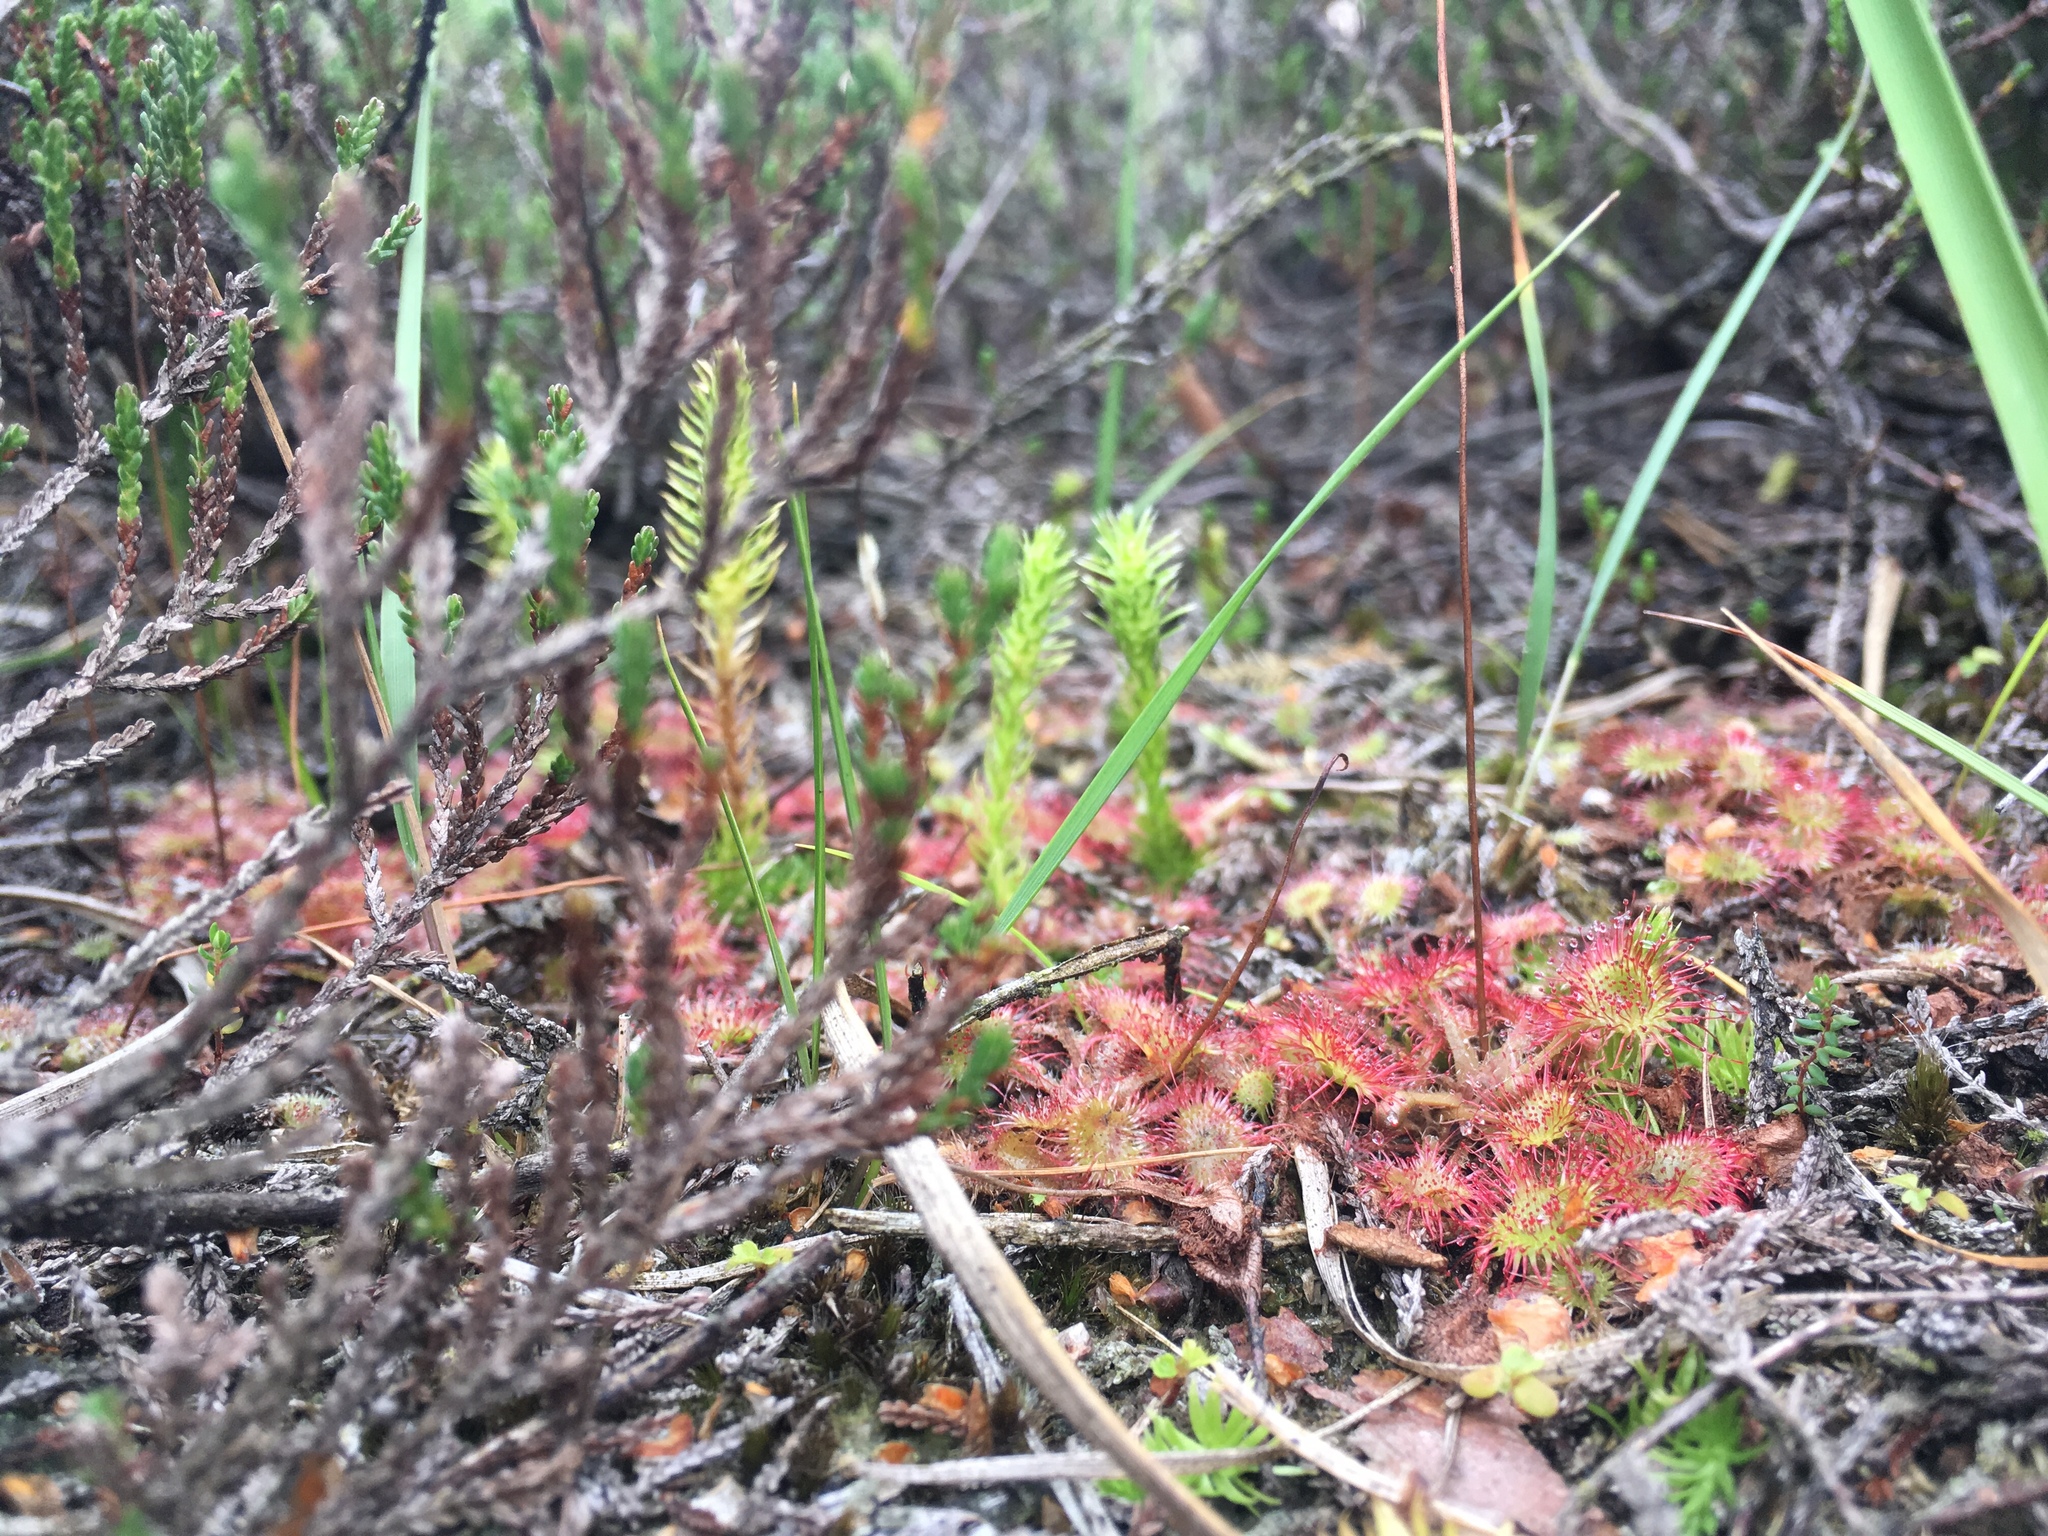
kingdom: Plantae
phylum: Tracheophyta
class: Magnoliopsida
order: Caryophyllales
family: Droseraceae
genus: Drosera
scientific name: Drosera rotundifolia
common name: Round-leaved sundew
